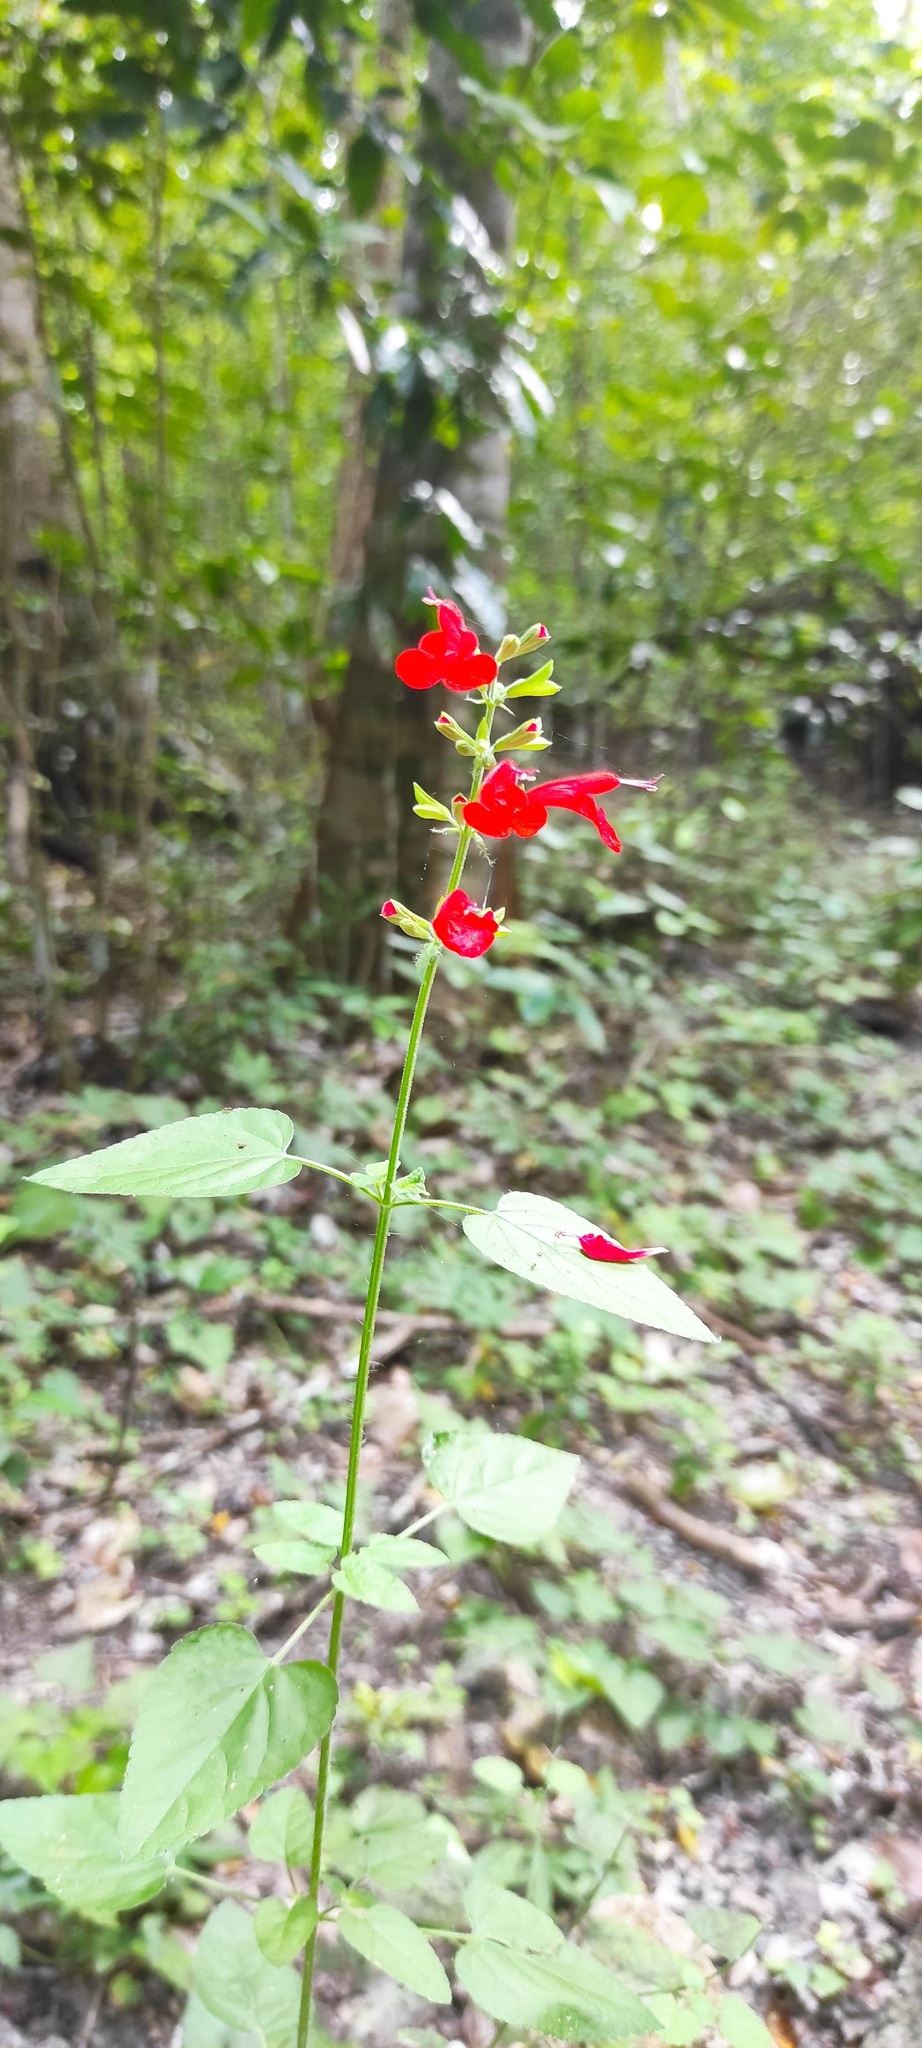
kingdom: Plantae
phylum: Tracheophyta
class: Magnoliopsida
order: Lamiales
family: Lamiaceae
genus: Salvia
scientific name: Salvia coccinea
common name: Blood sage
